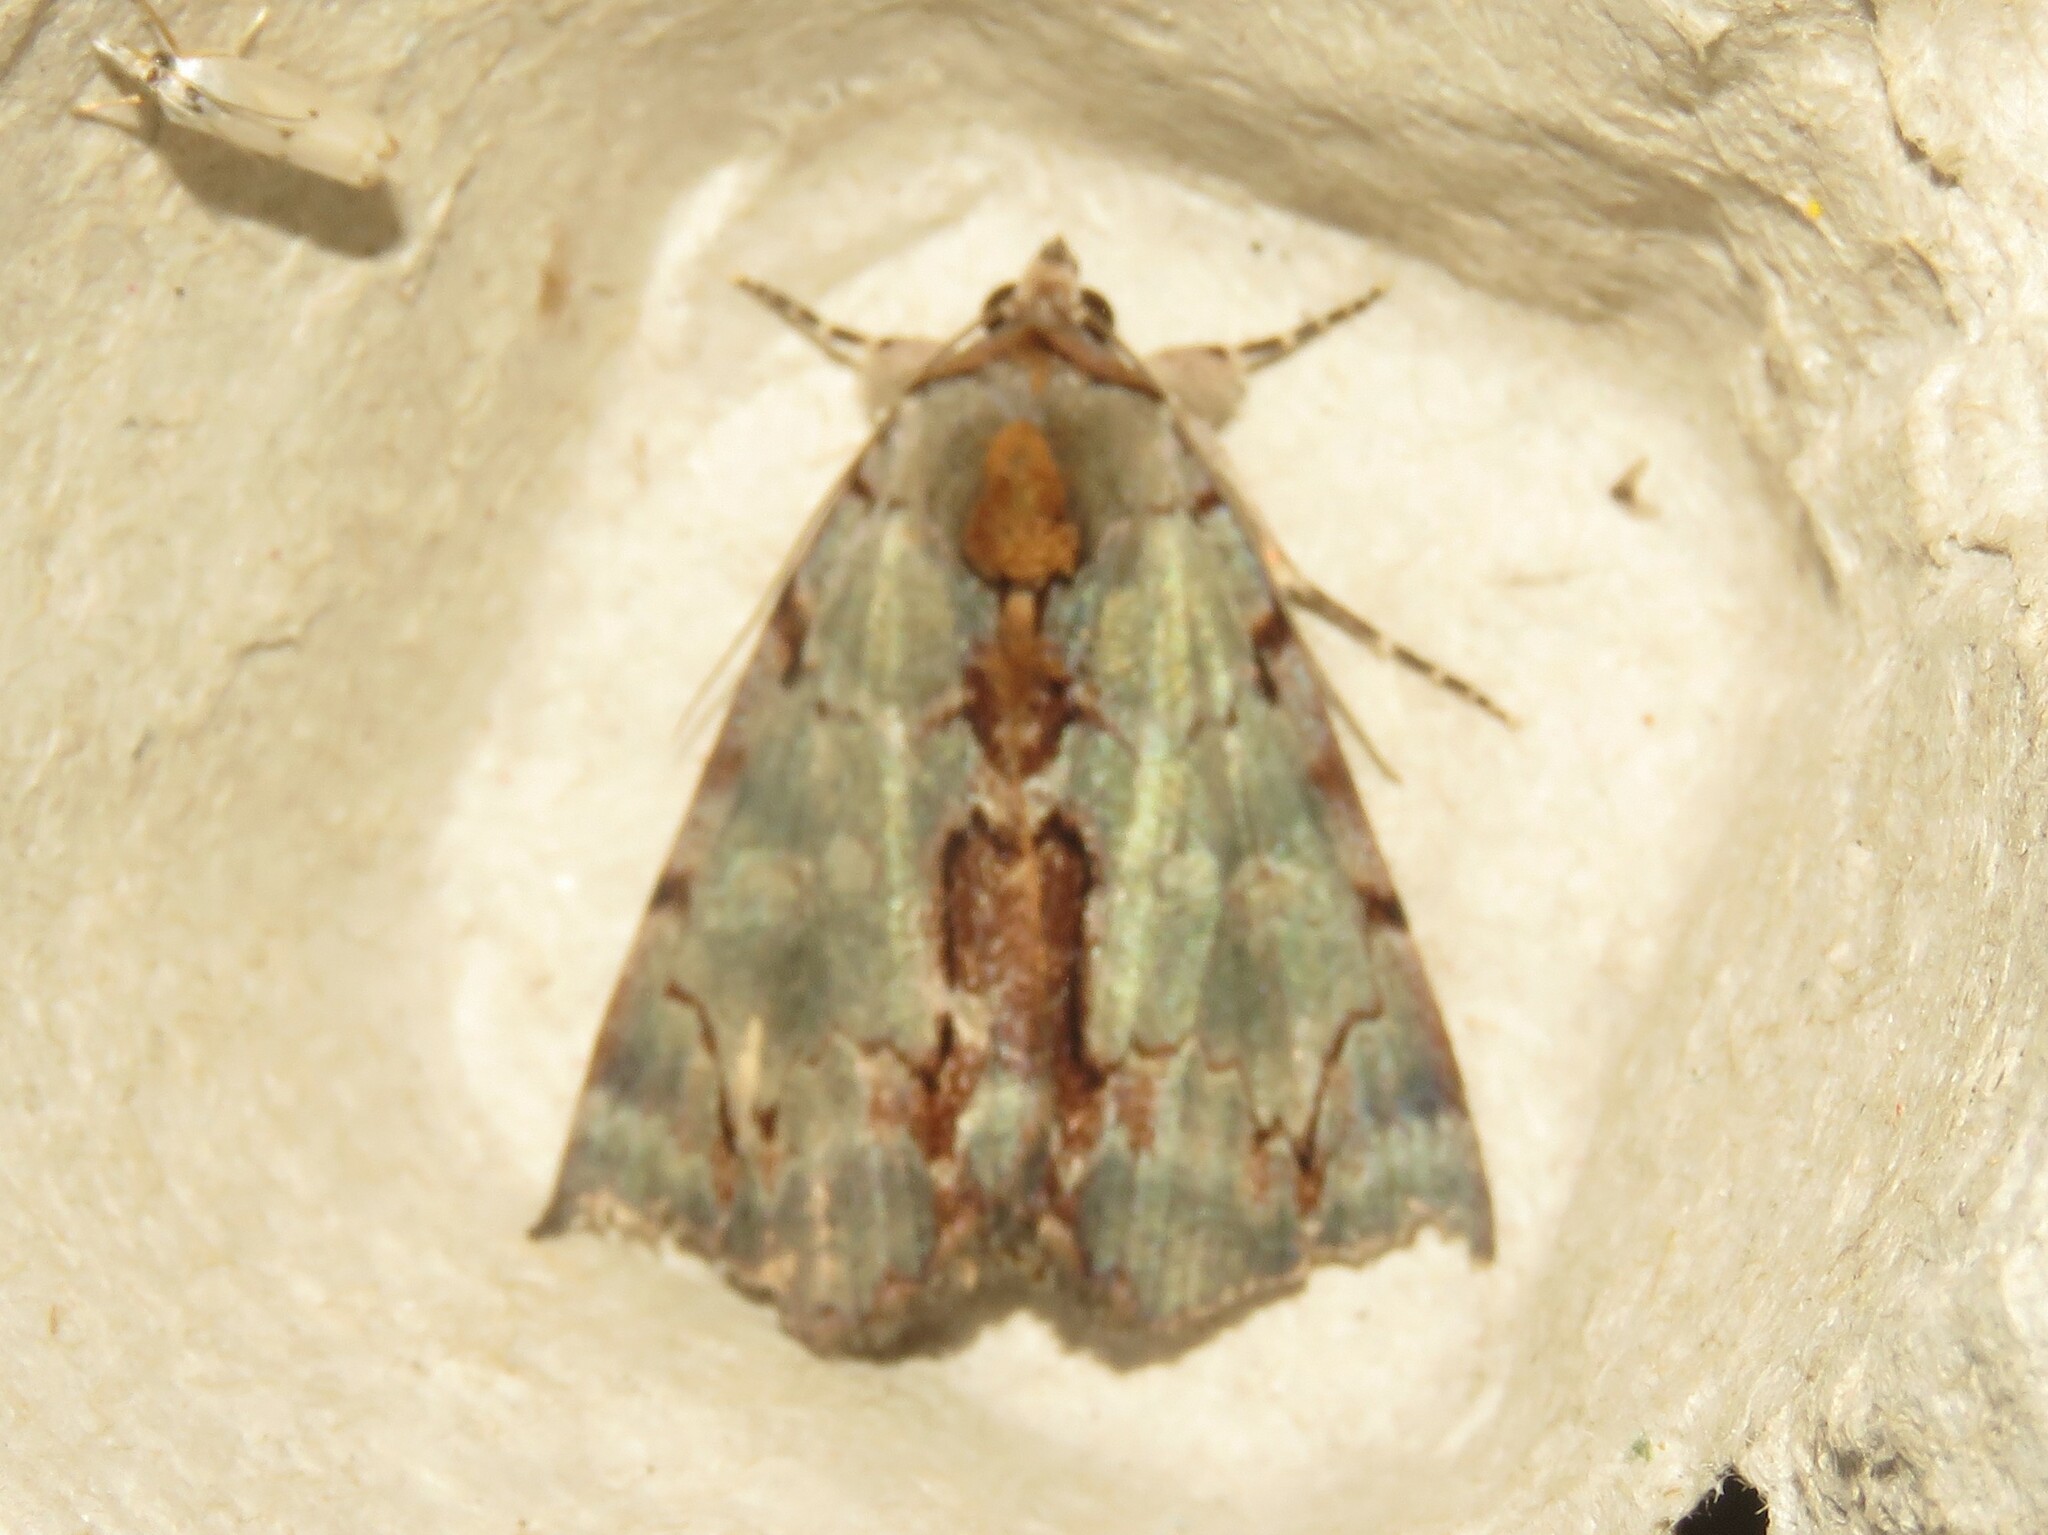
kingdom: Animalia
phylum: Arthropoda
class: Insecta
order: Lepidoptera
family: Erebidae
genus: Catocala
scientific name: Catocala grynea
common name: Woody underwing
